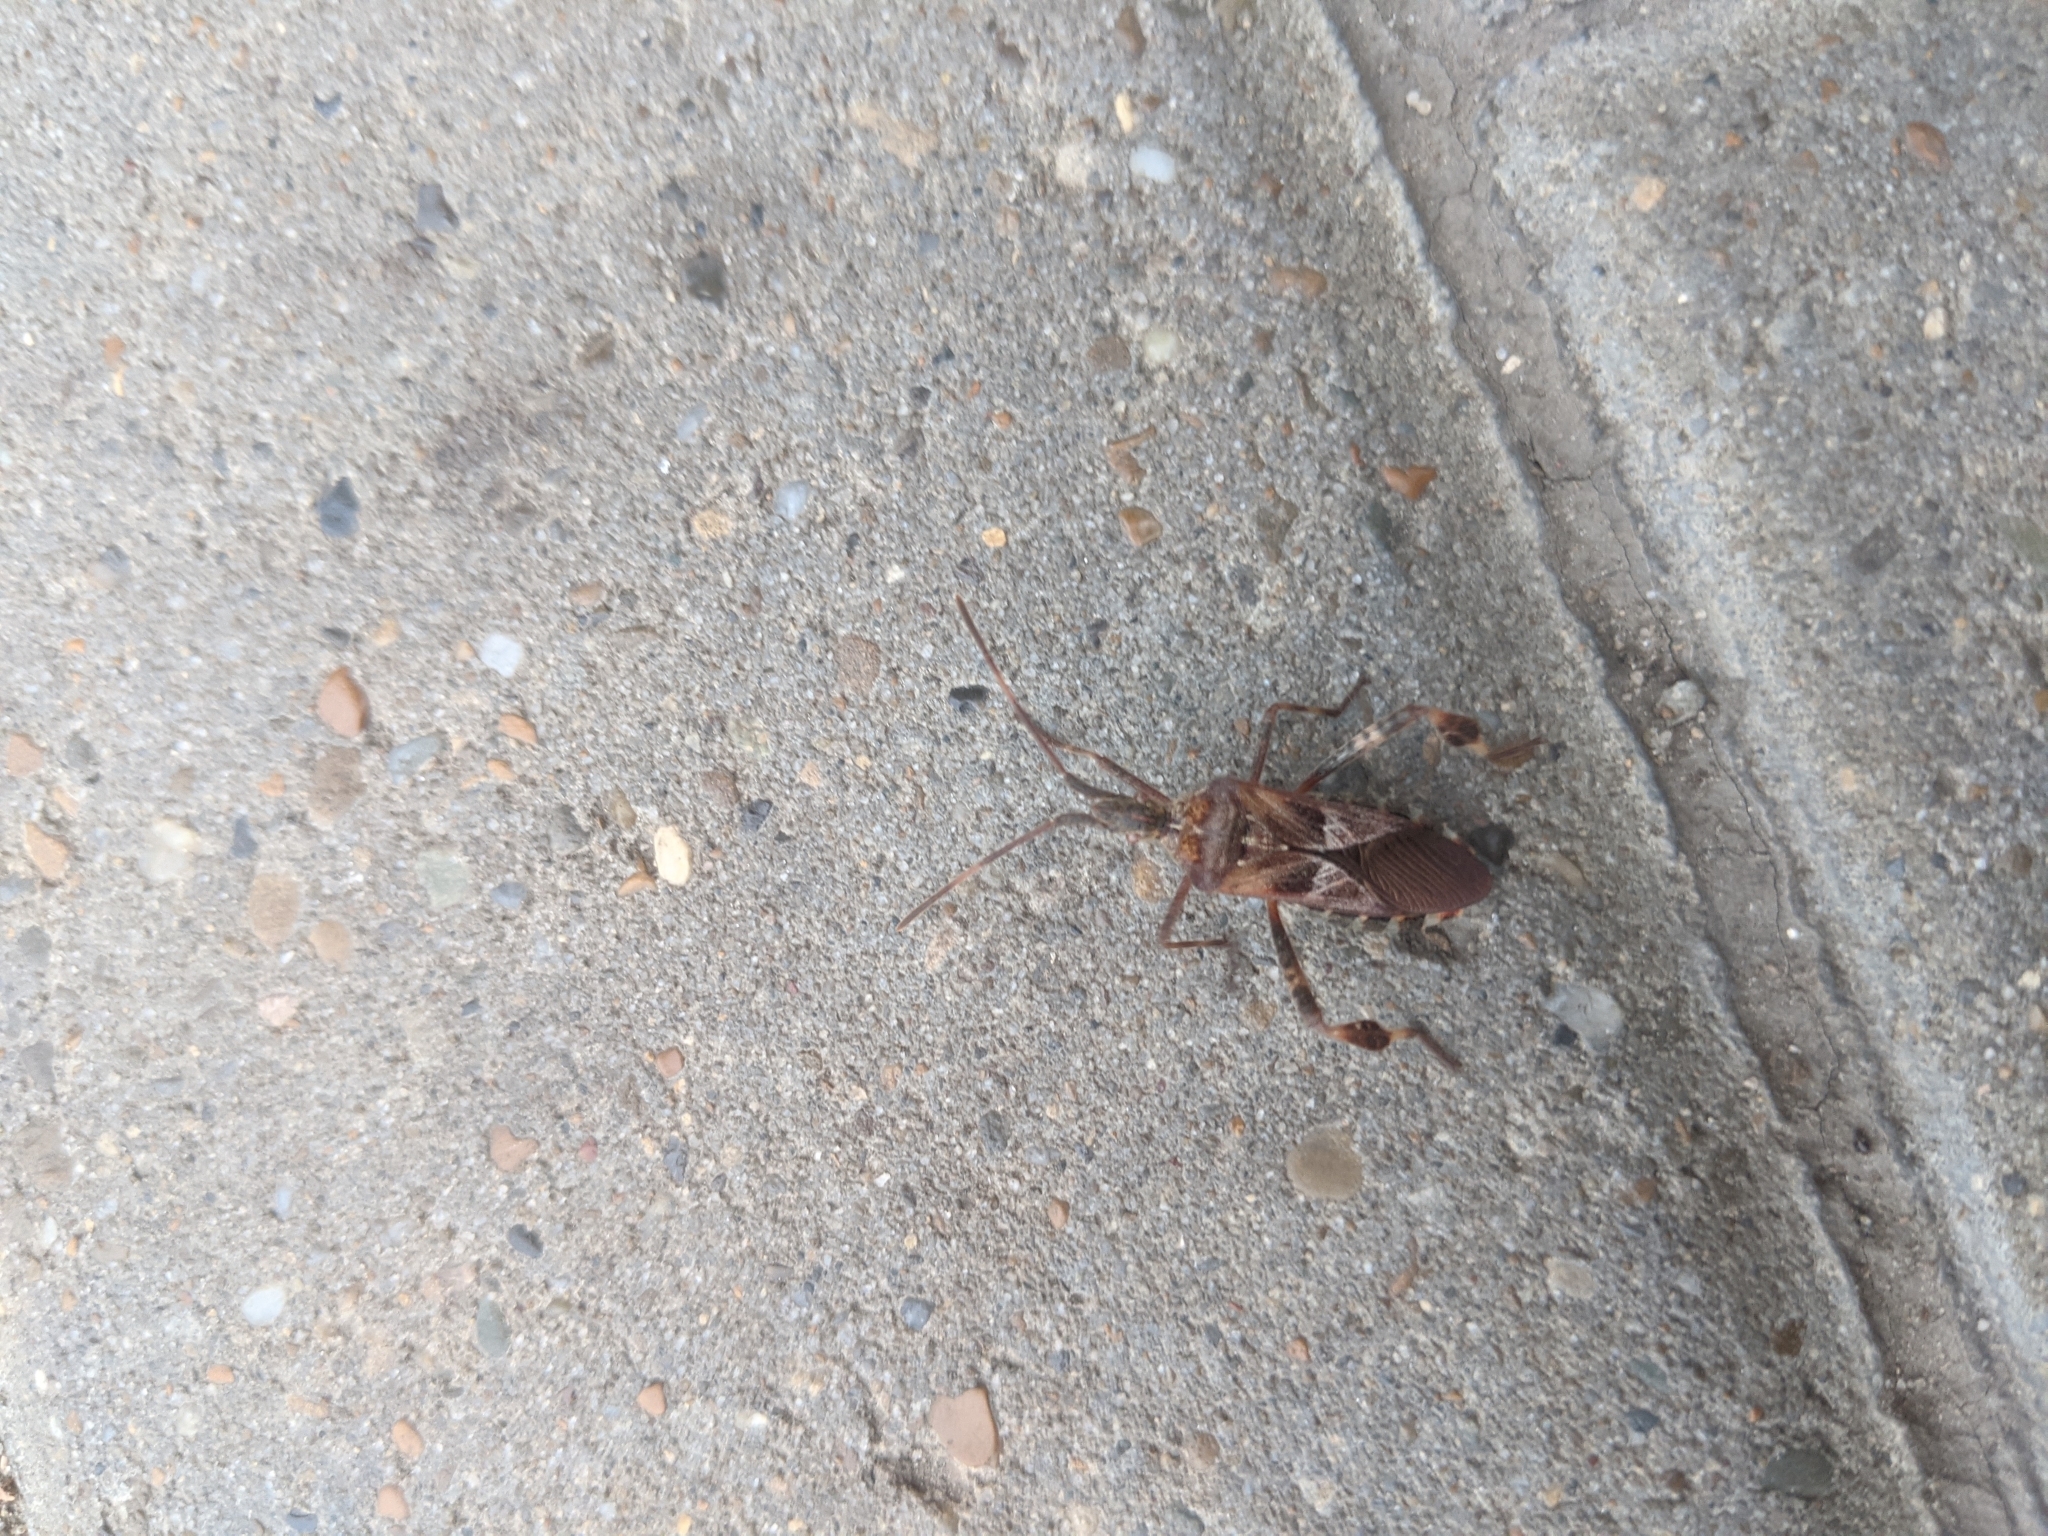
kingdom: Animalia
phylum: Arthropoda
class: Insecta
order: Hemiptera
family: Coreidae
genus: Leptoglossus
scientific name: Leptoglossus occidentalis
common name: Western conifer-seed bug
